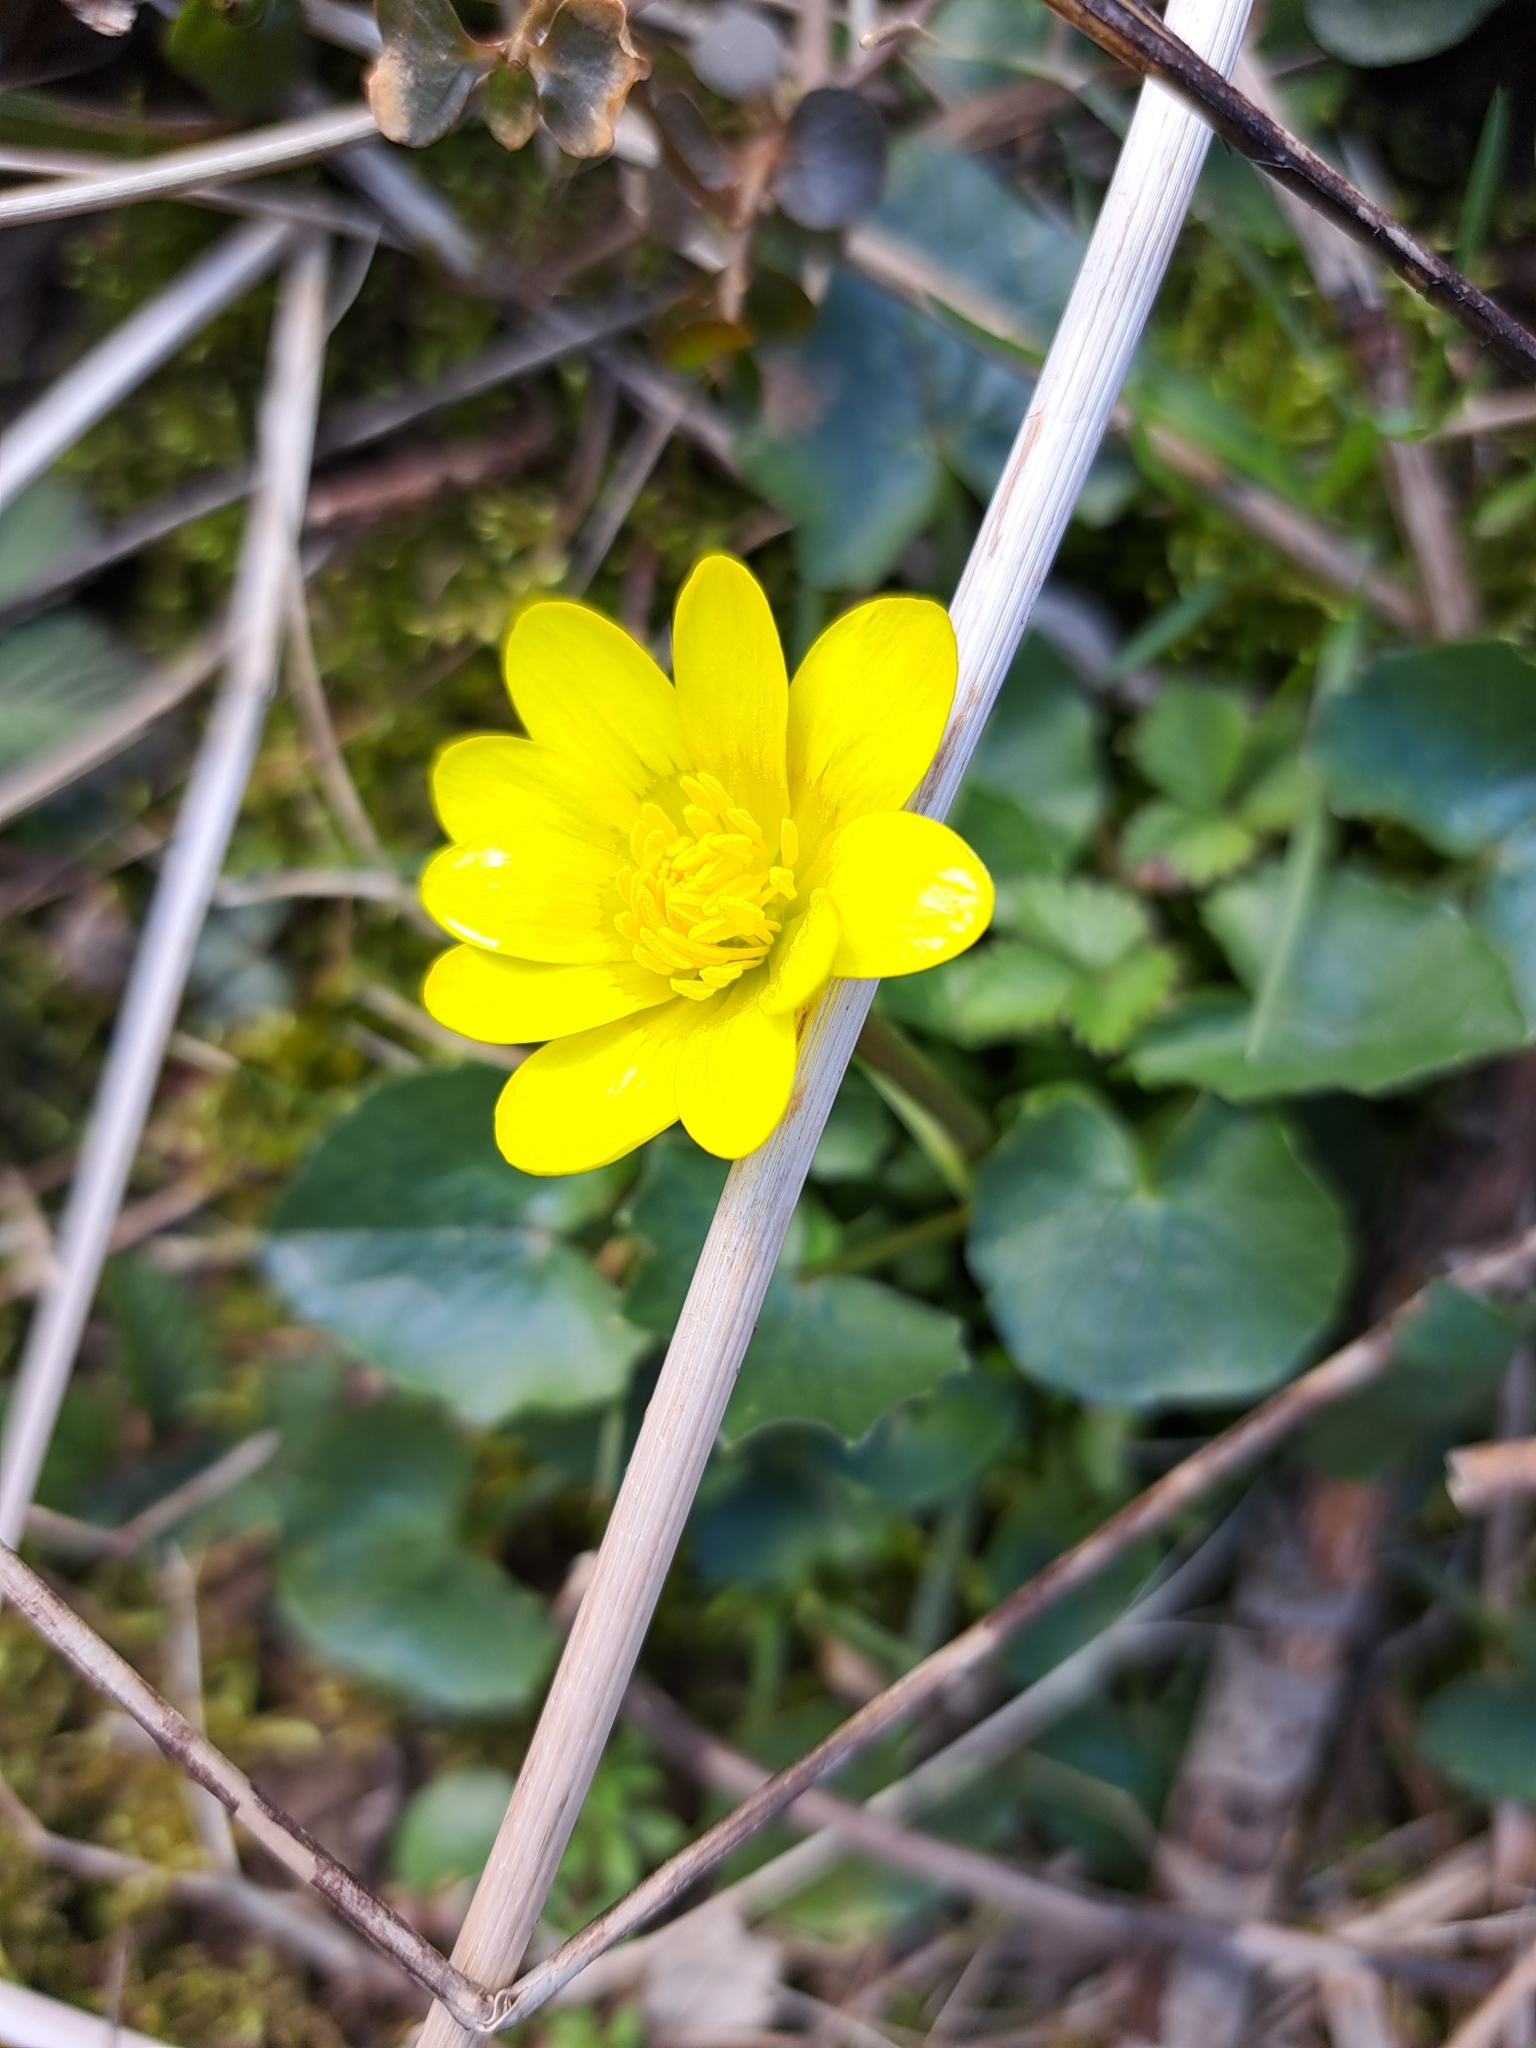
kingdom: Plantae
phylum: Tracheophyta
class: Magnoliopsida
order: Ranunculales
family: Ranunculaceae
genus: Ficaria
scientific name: Ficaria verna
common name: Lesser celandine
